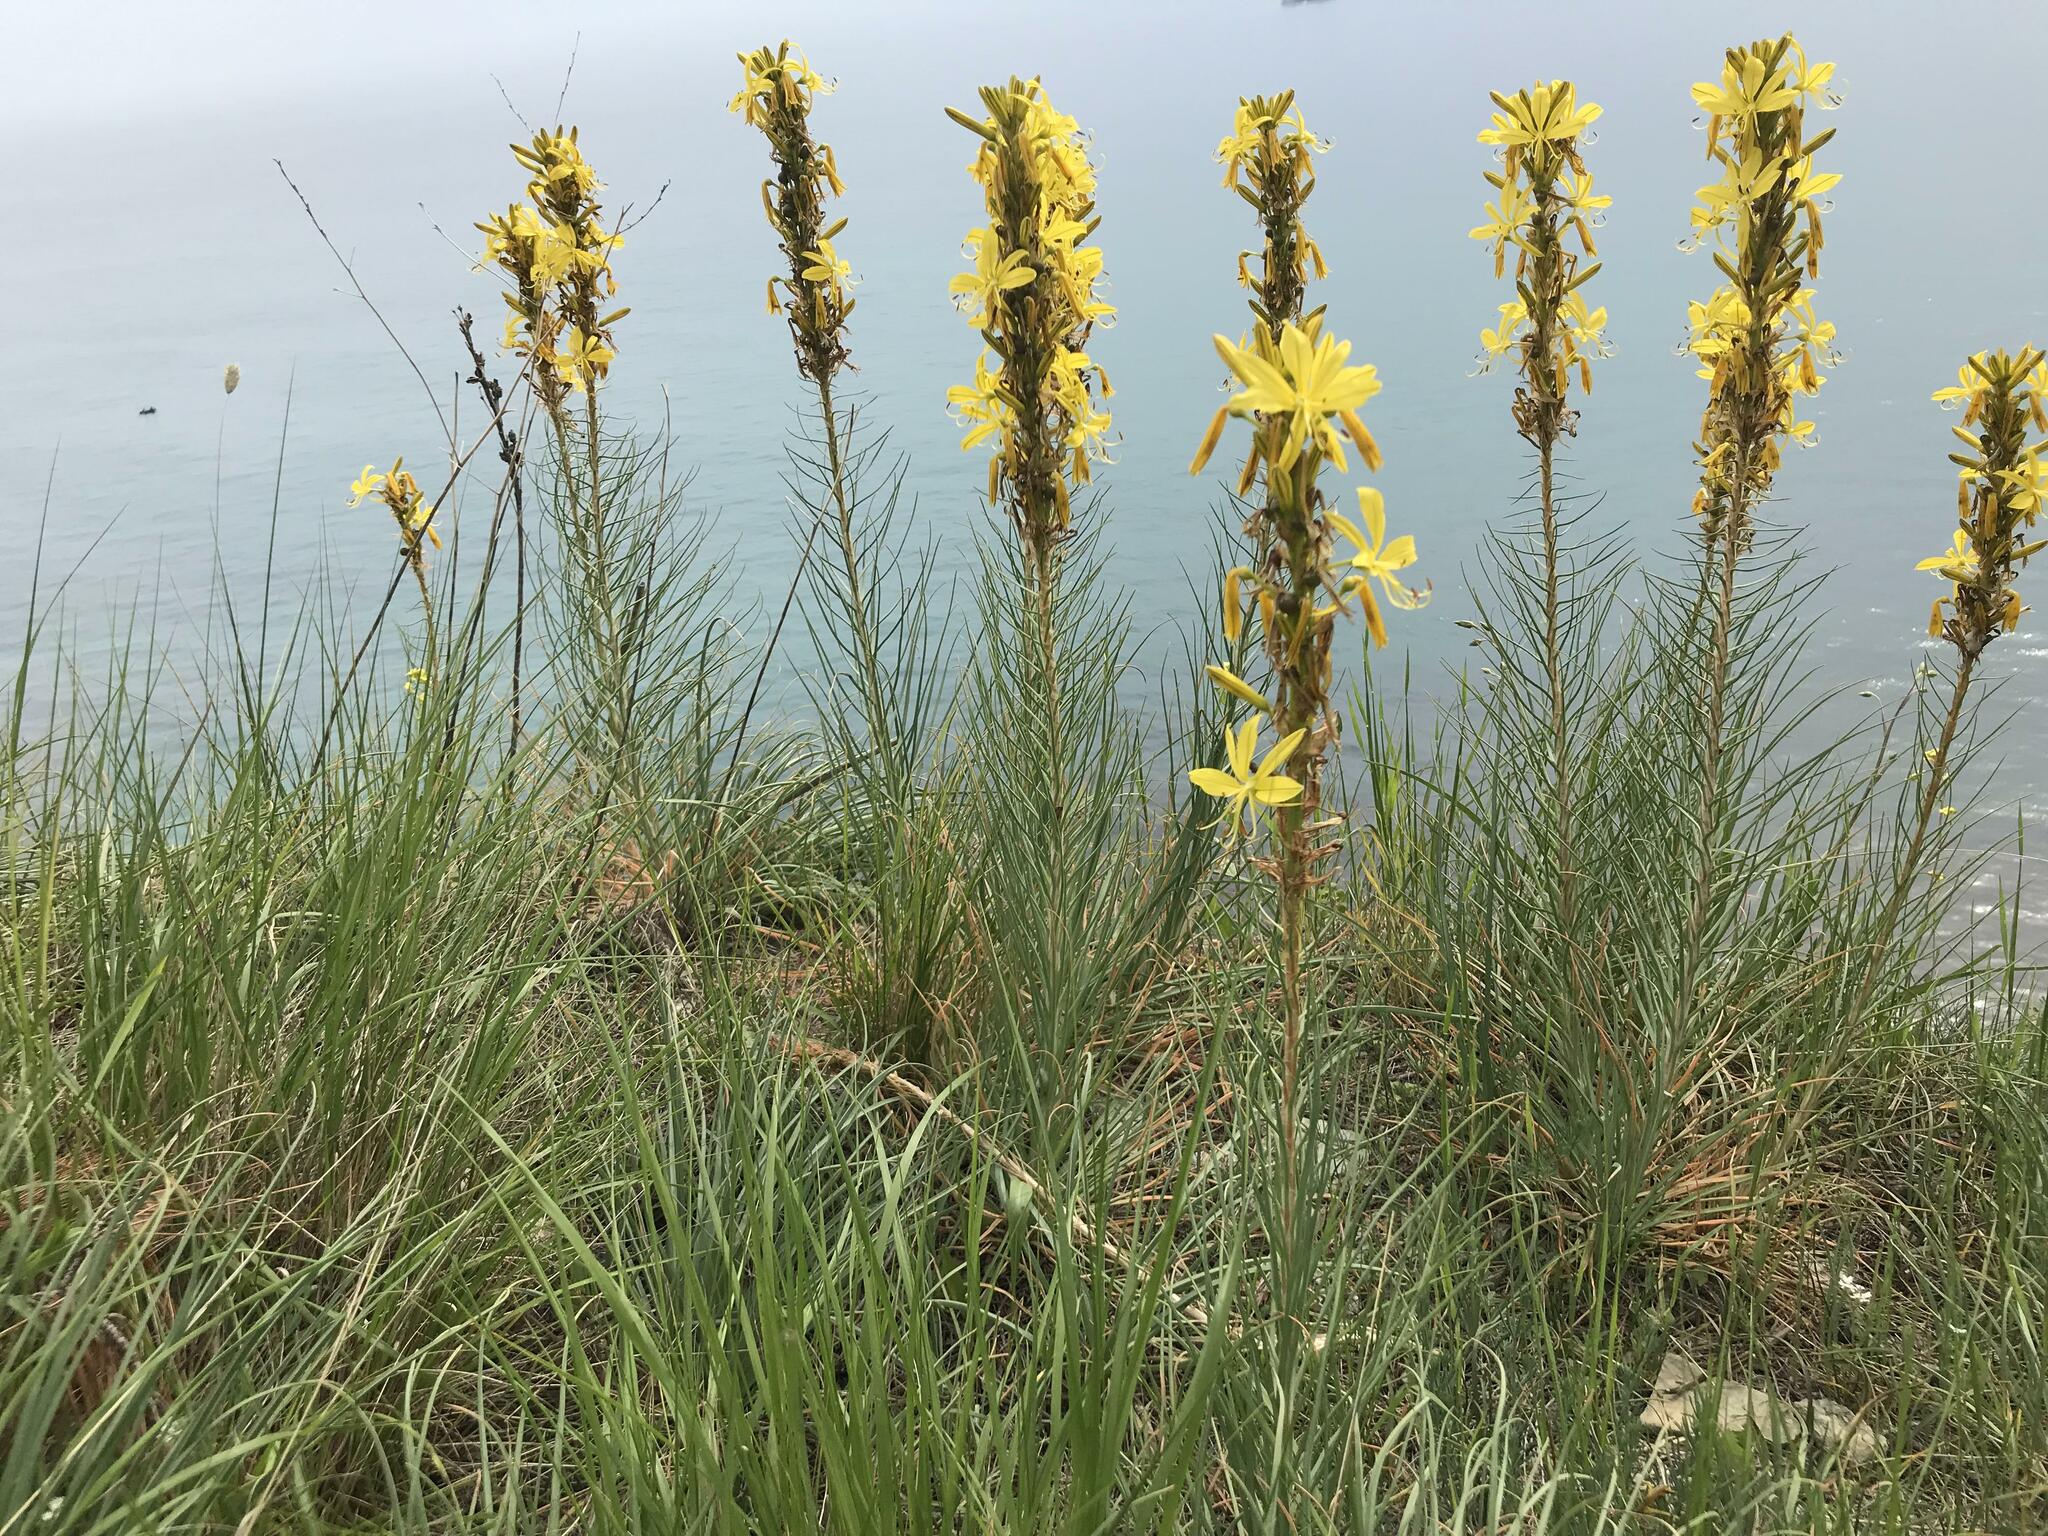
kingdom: Plantae
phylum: Tracheophyta
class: Liliopsida
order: Asparagales
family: Asphodelaceae
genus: Asphodeline
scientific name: Asphodeline lutea
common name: Yellow asphodel
